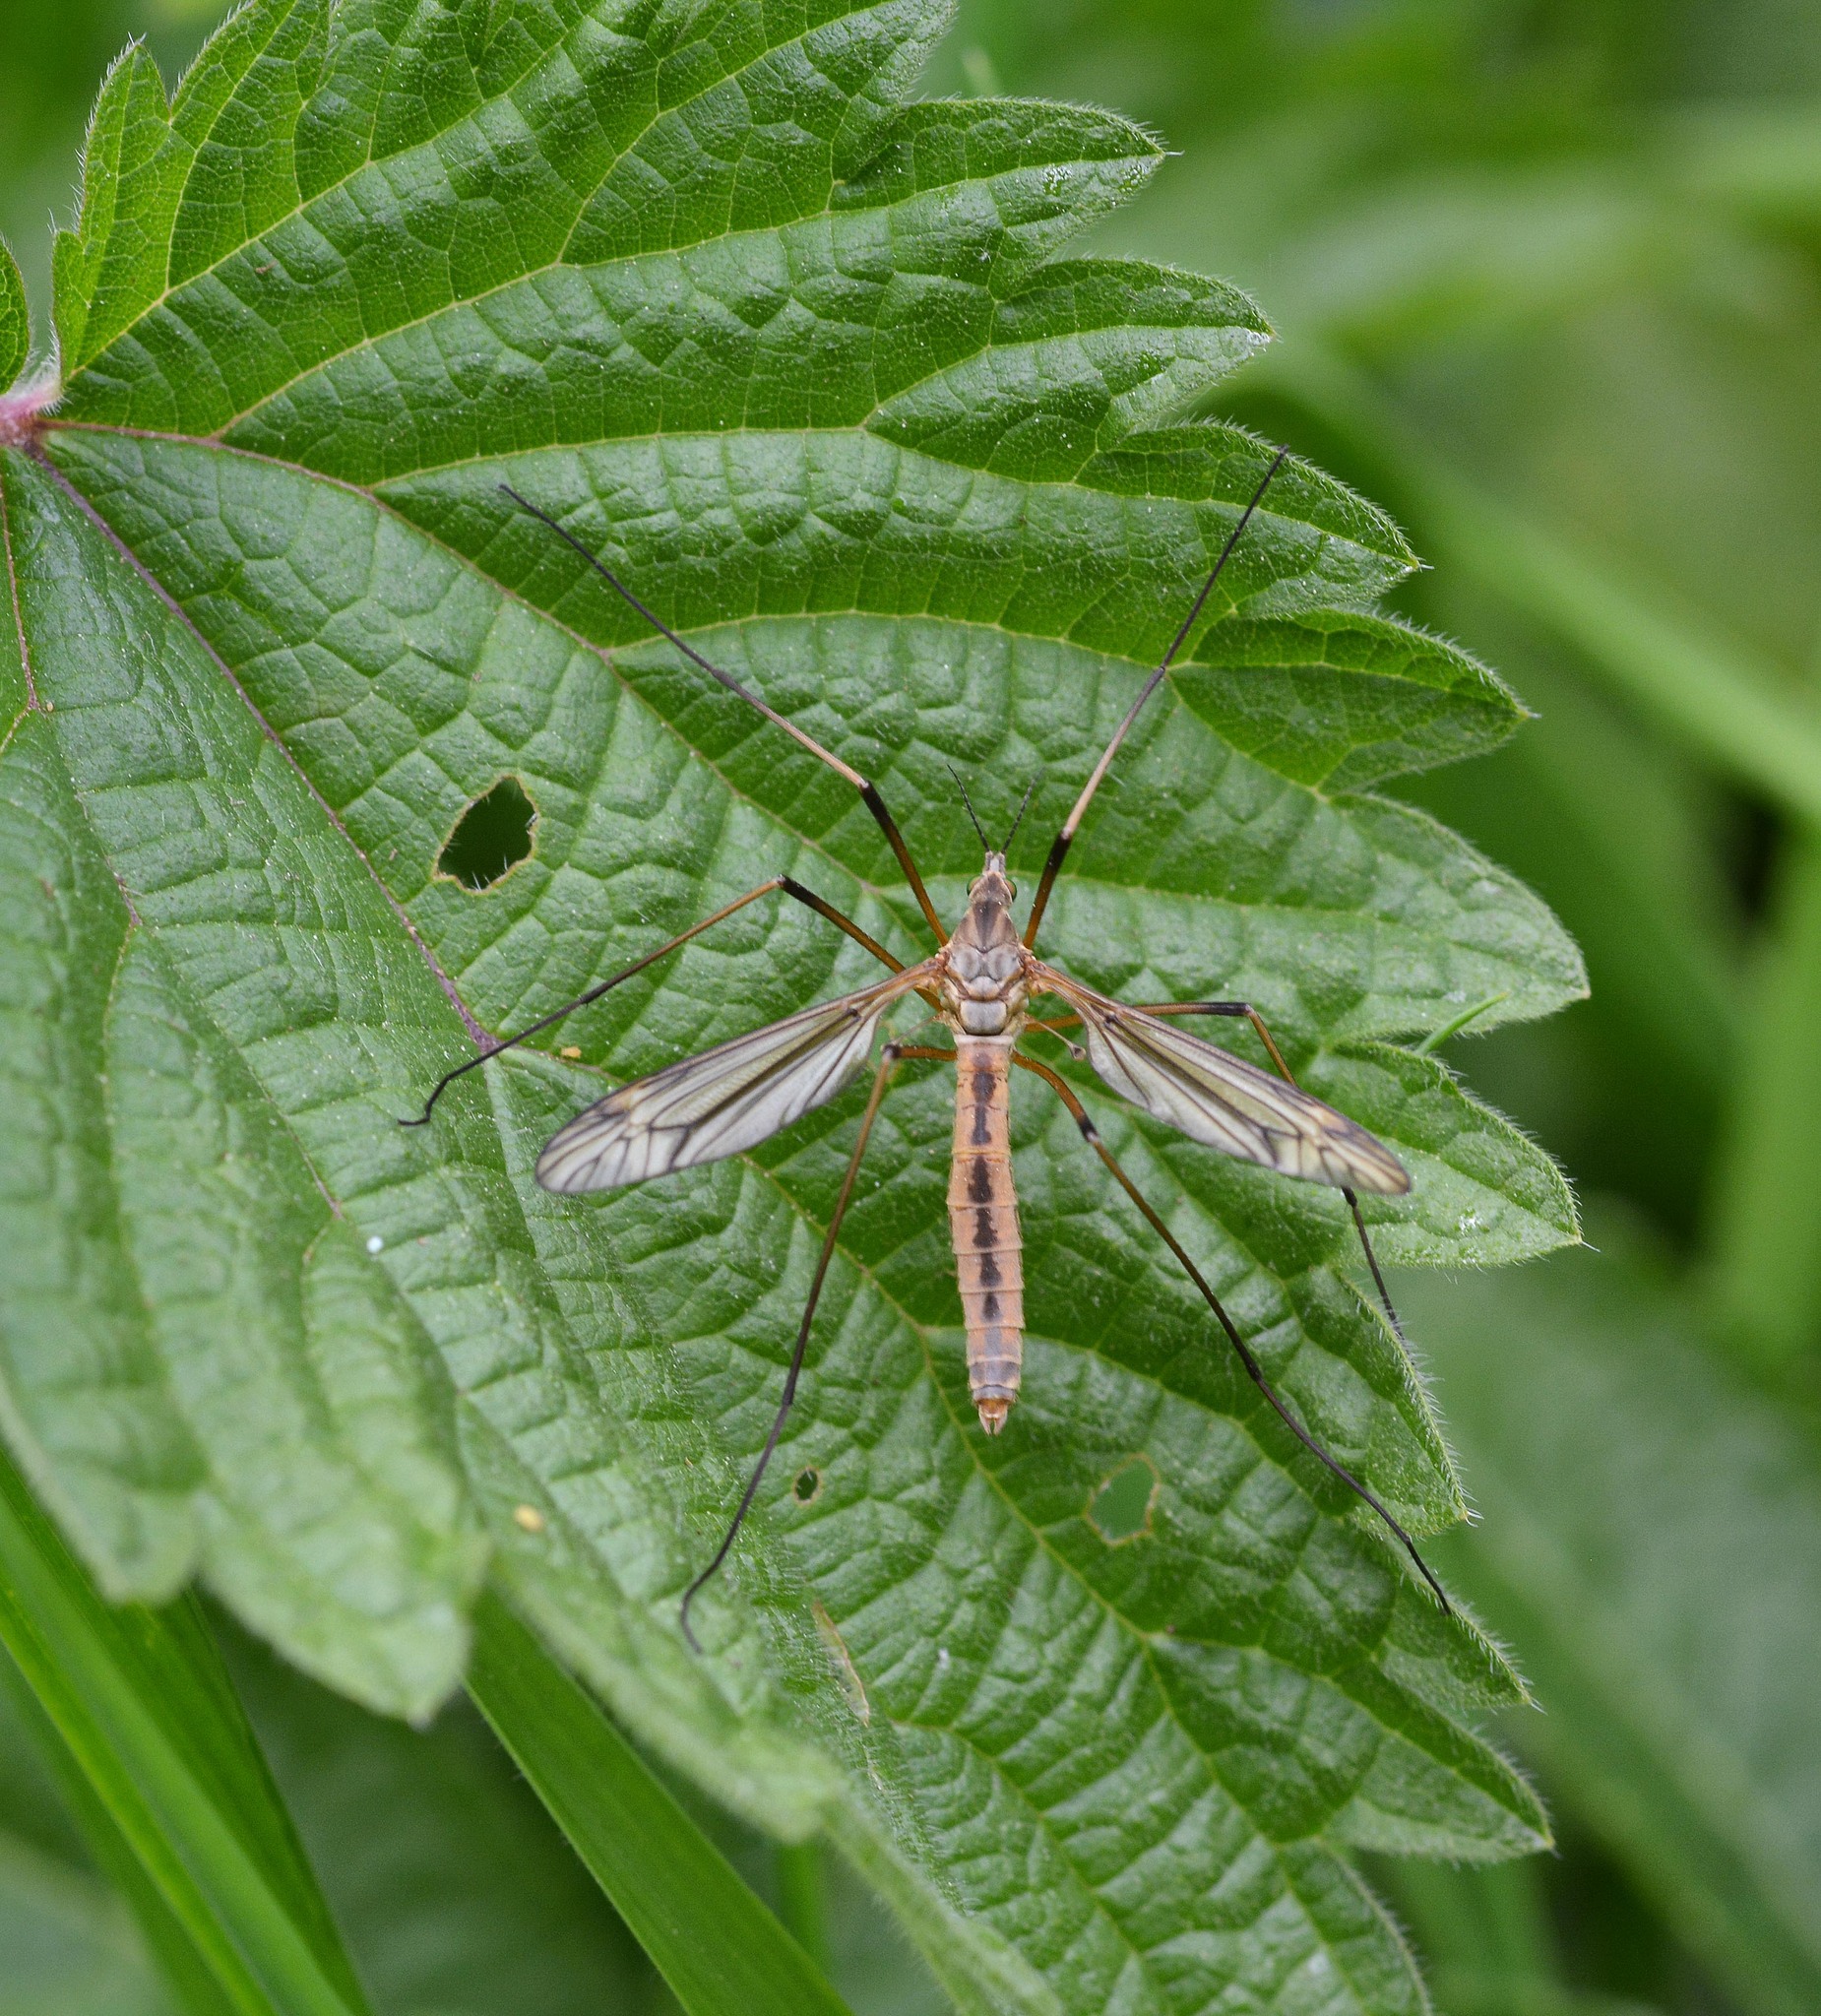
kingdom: Animalia
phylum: Arthropoda
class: Insecta
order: Diptera
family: Tipulidae
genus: Tipula
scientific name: Tipula vernalis
